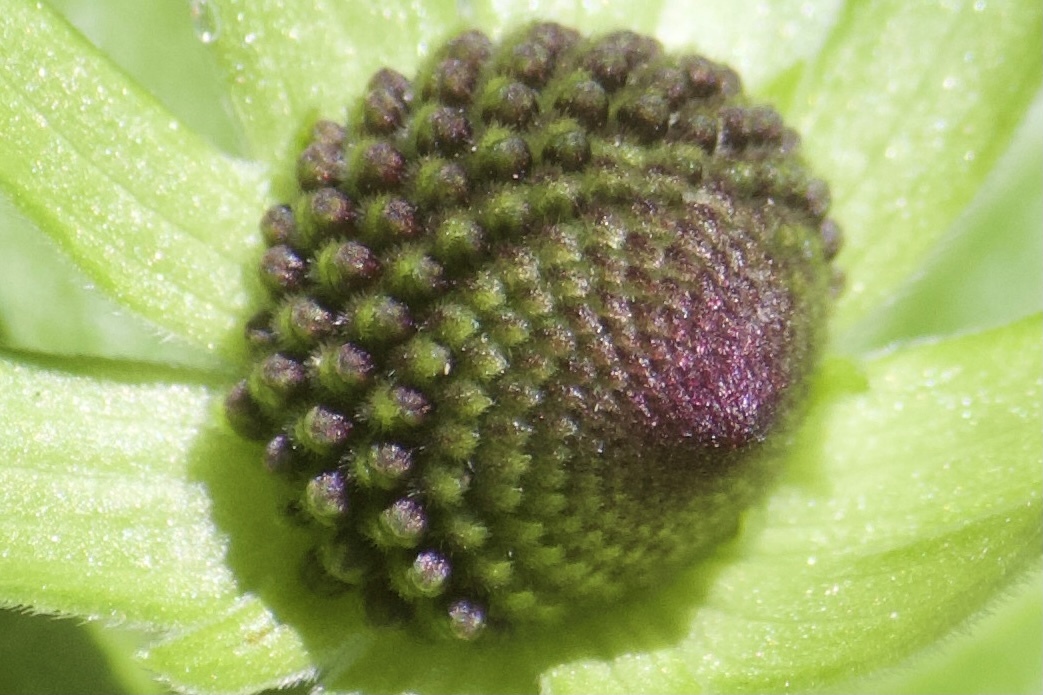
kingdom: Plantae
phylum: Tracheophyta
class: Magnoliopsida
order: Asterales
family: Asteraceae
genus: Rudbeckia
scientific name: Rudbeckia occidentalis
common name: Western coneflower
